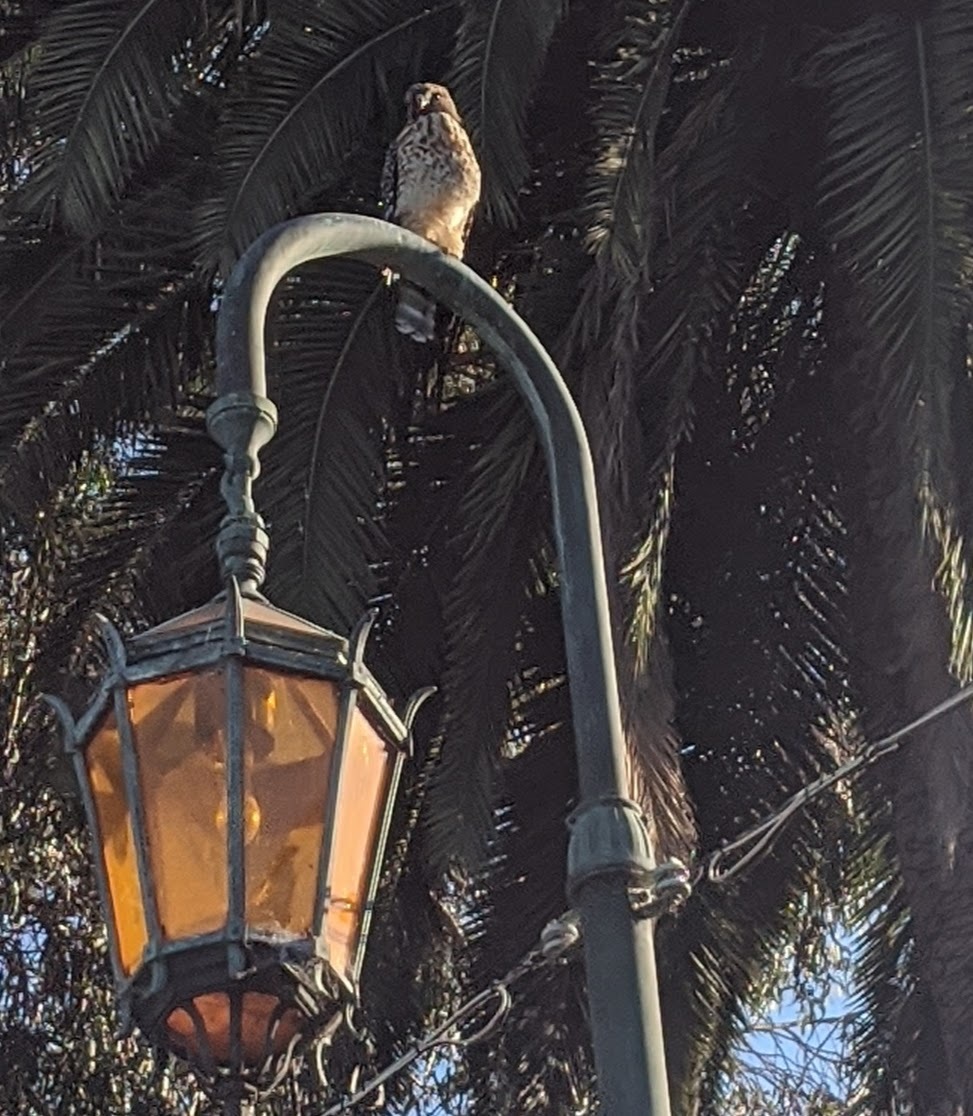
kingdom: Animalia
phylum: Chordata
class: Aves
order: Accipitriformes
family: Accipitridae
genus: Buteo
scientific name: Buteo lineatus
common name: Red-shouldered hawk
